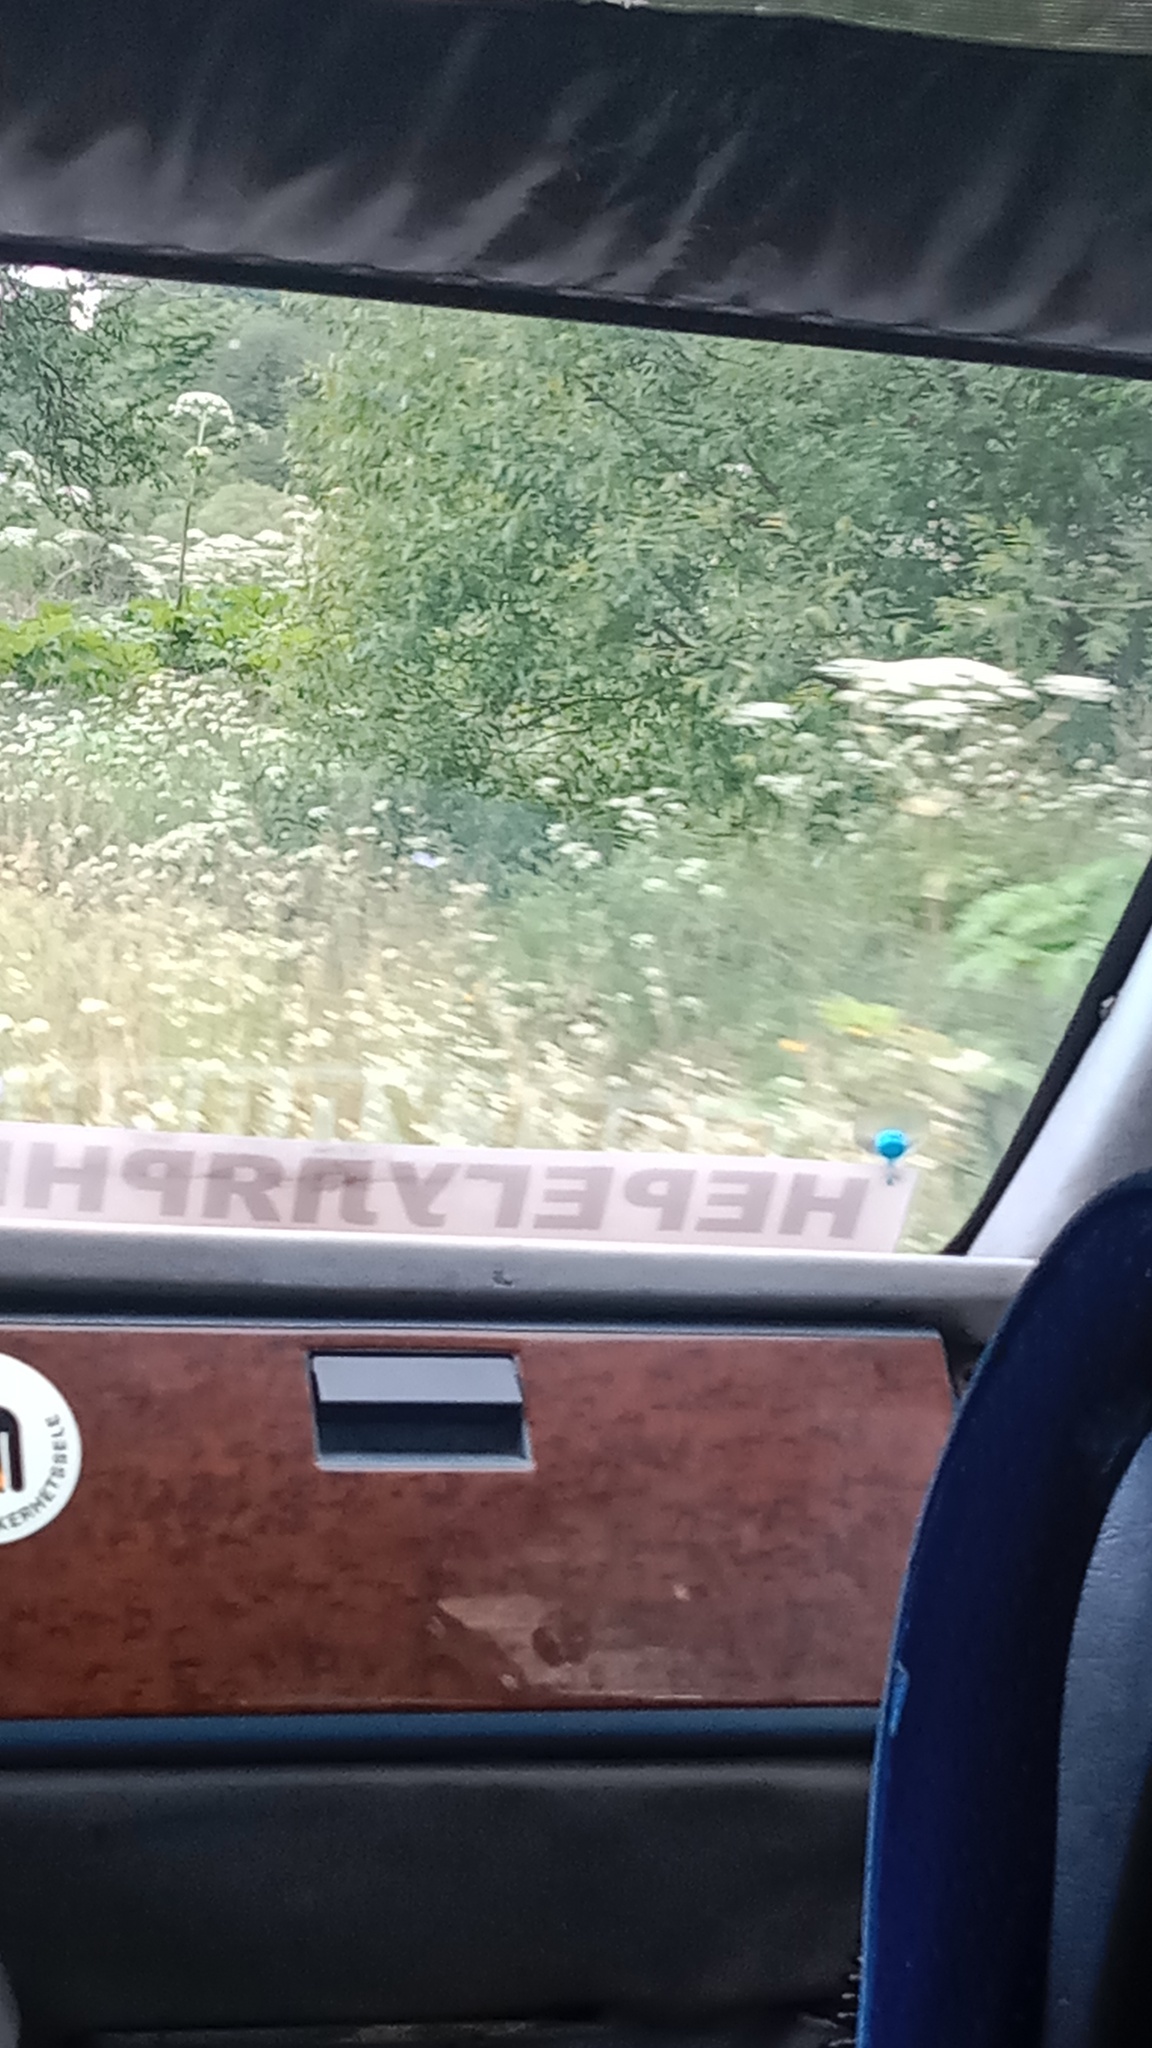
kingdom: Plantae
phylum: Tracheophyta
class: Magnoliopsida
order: Apiales
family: Apiaceae
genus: Heracleum
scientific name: Heracleum sosnowskyi
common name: Sosnowsky's hogweed
